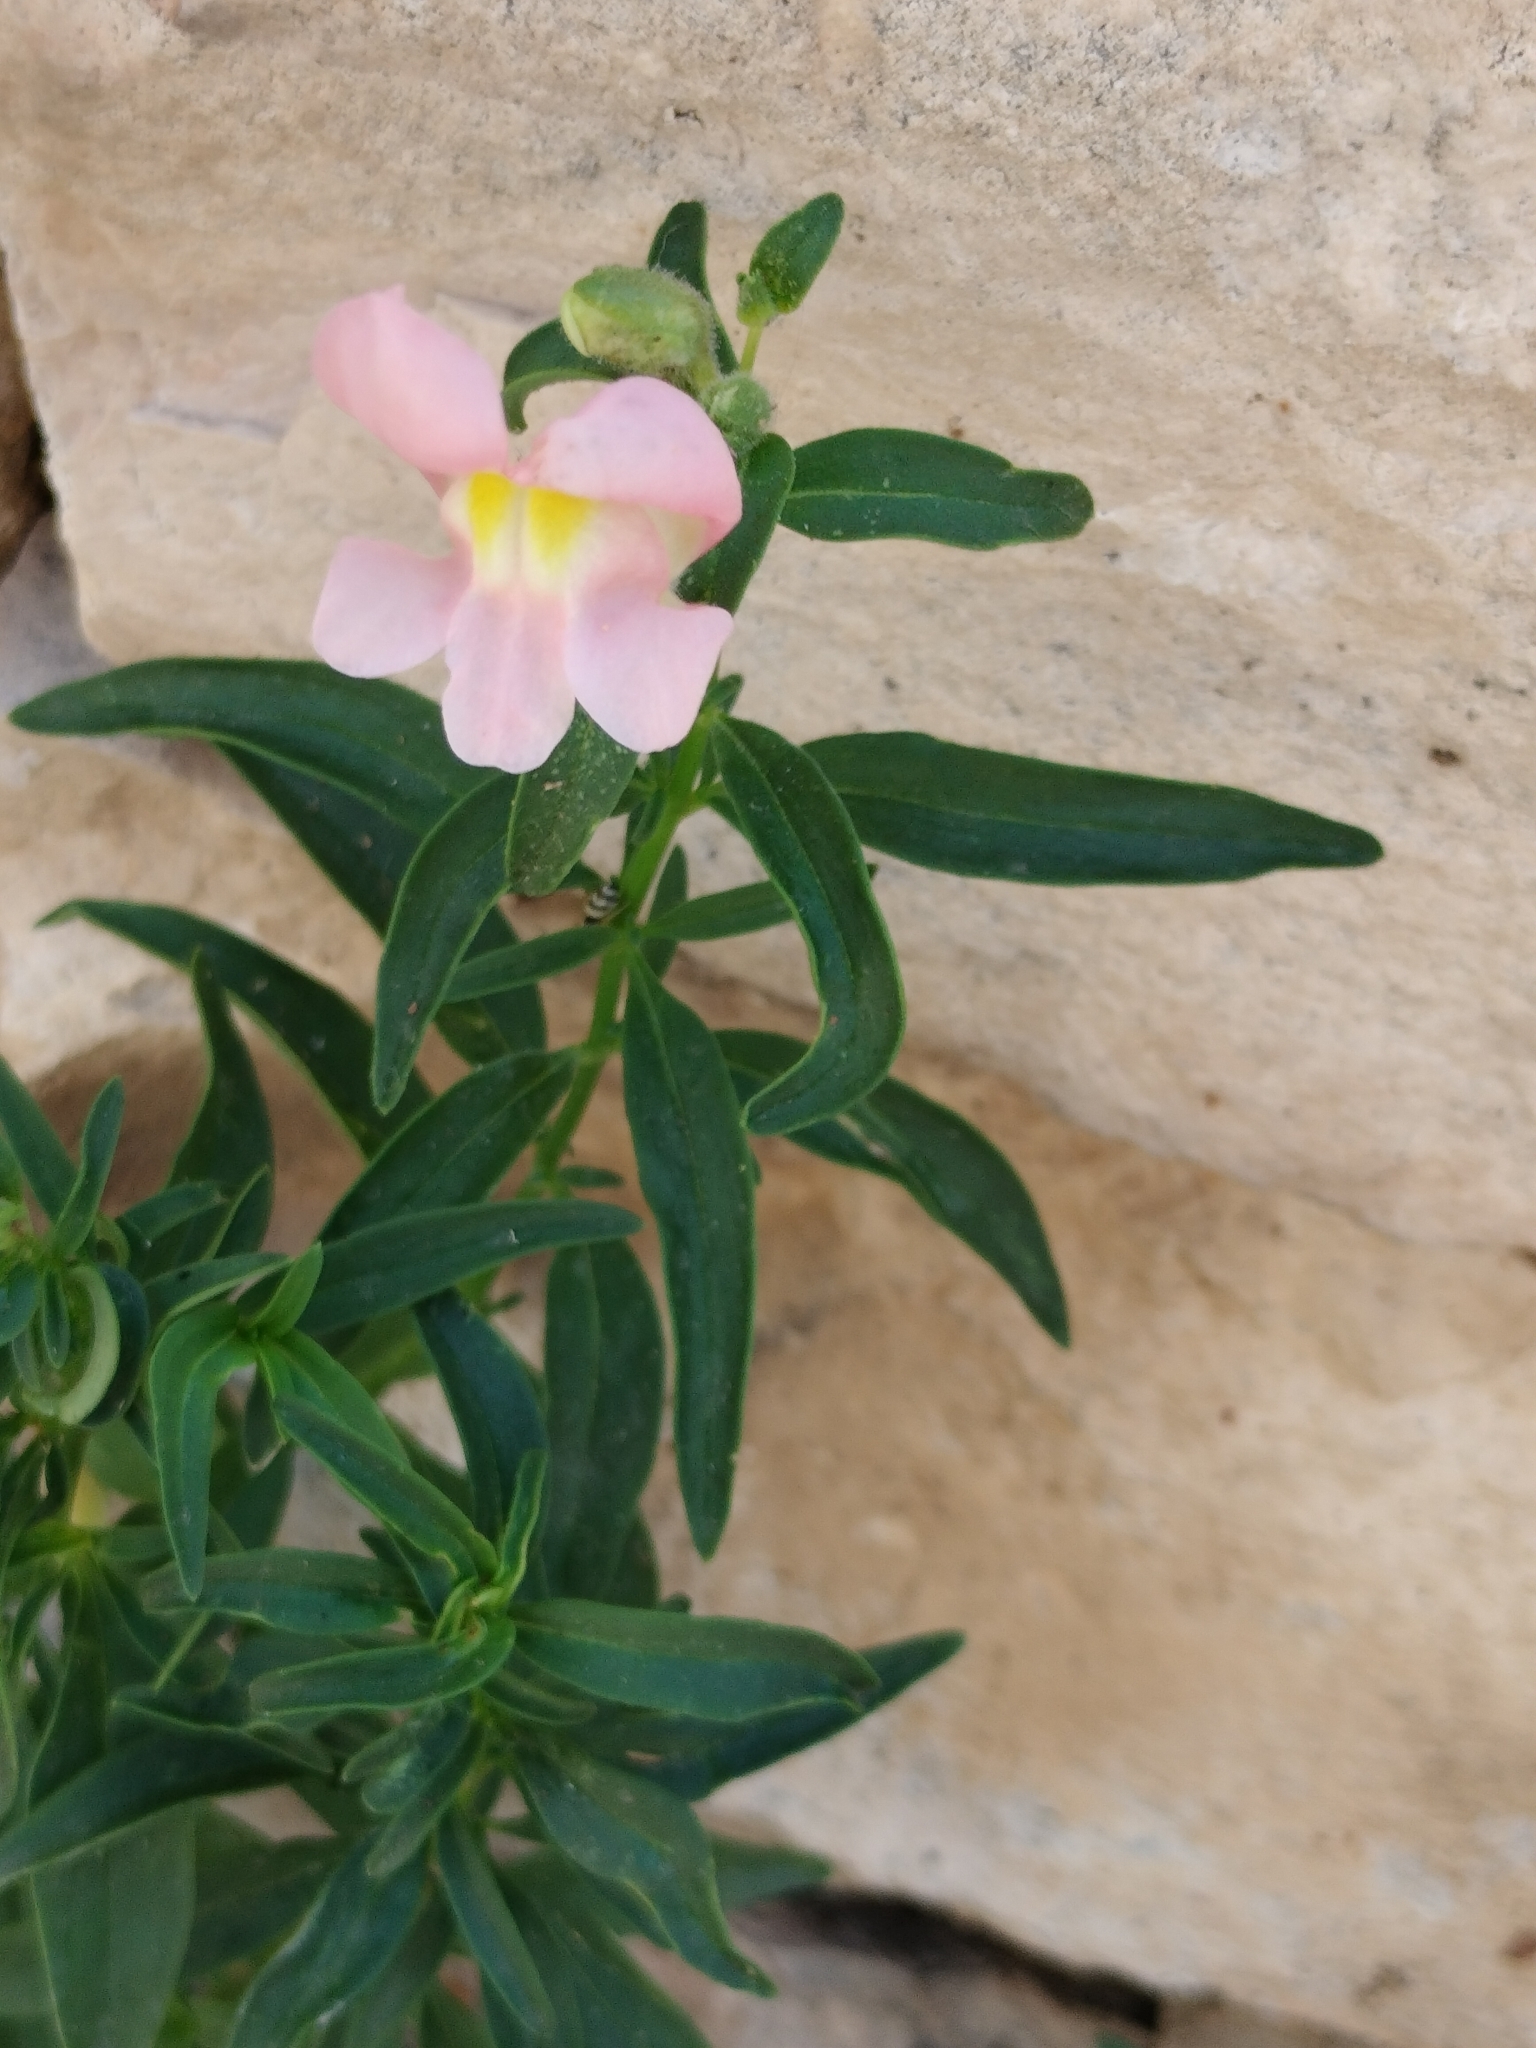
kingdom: Plantae
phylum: Tracheophyta
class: Magnoliopsida
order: Lamiales
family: Plantaginaceae
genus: Antirrhinum
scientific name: Antirrhinum majus
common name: Snapdragon
